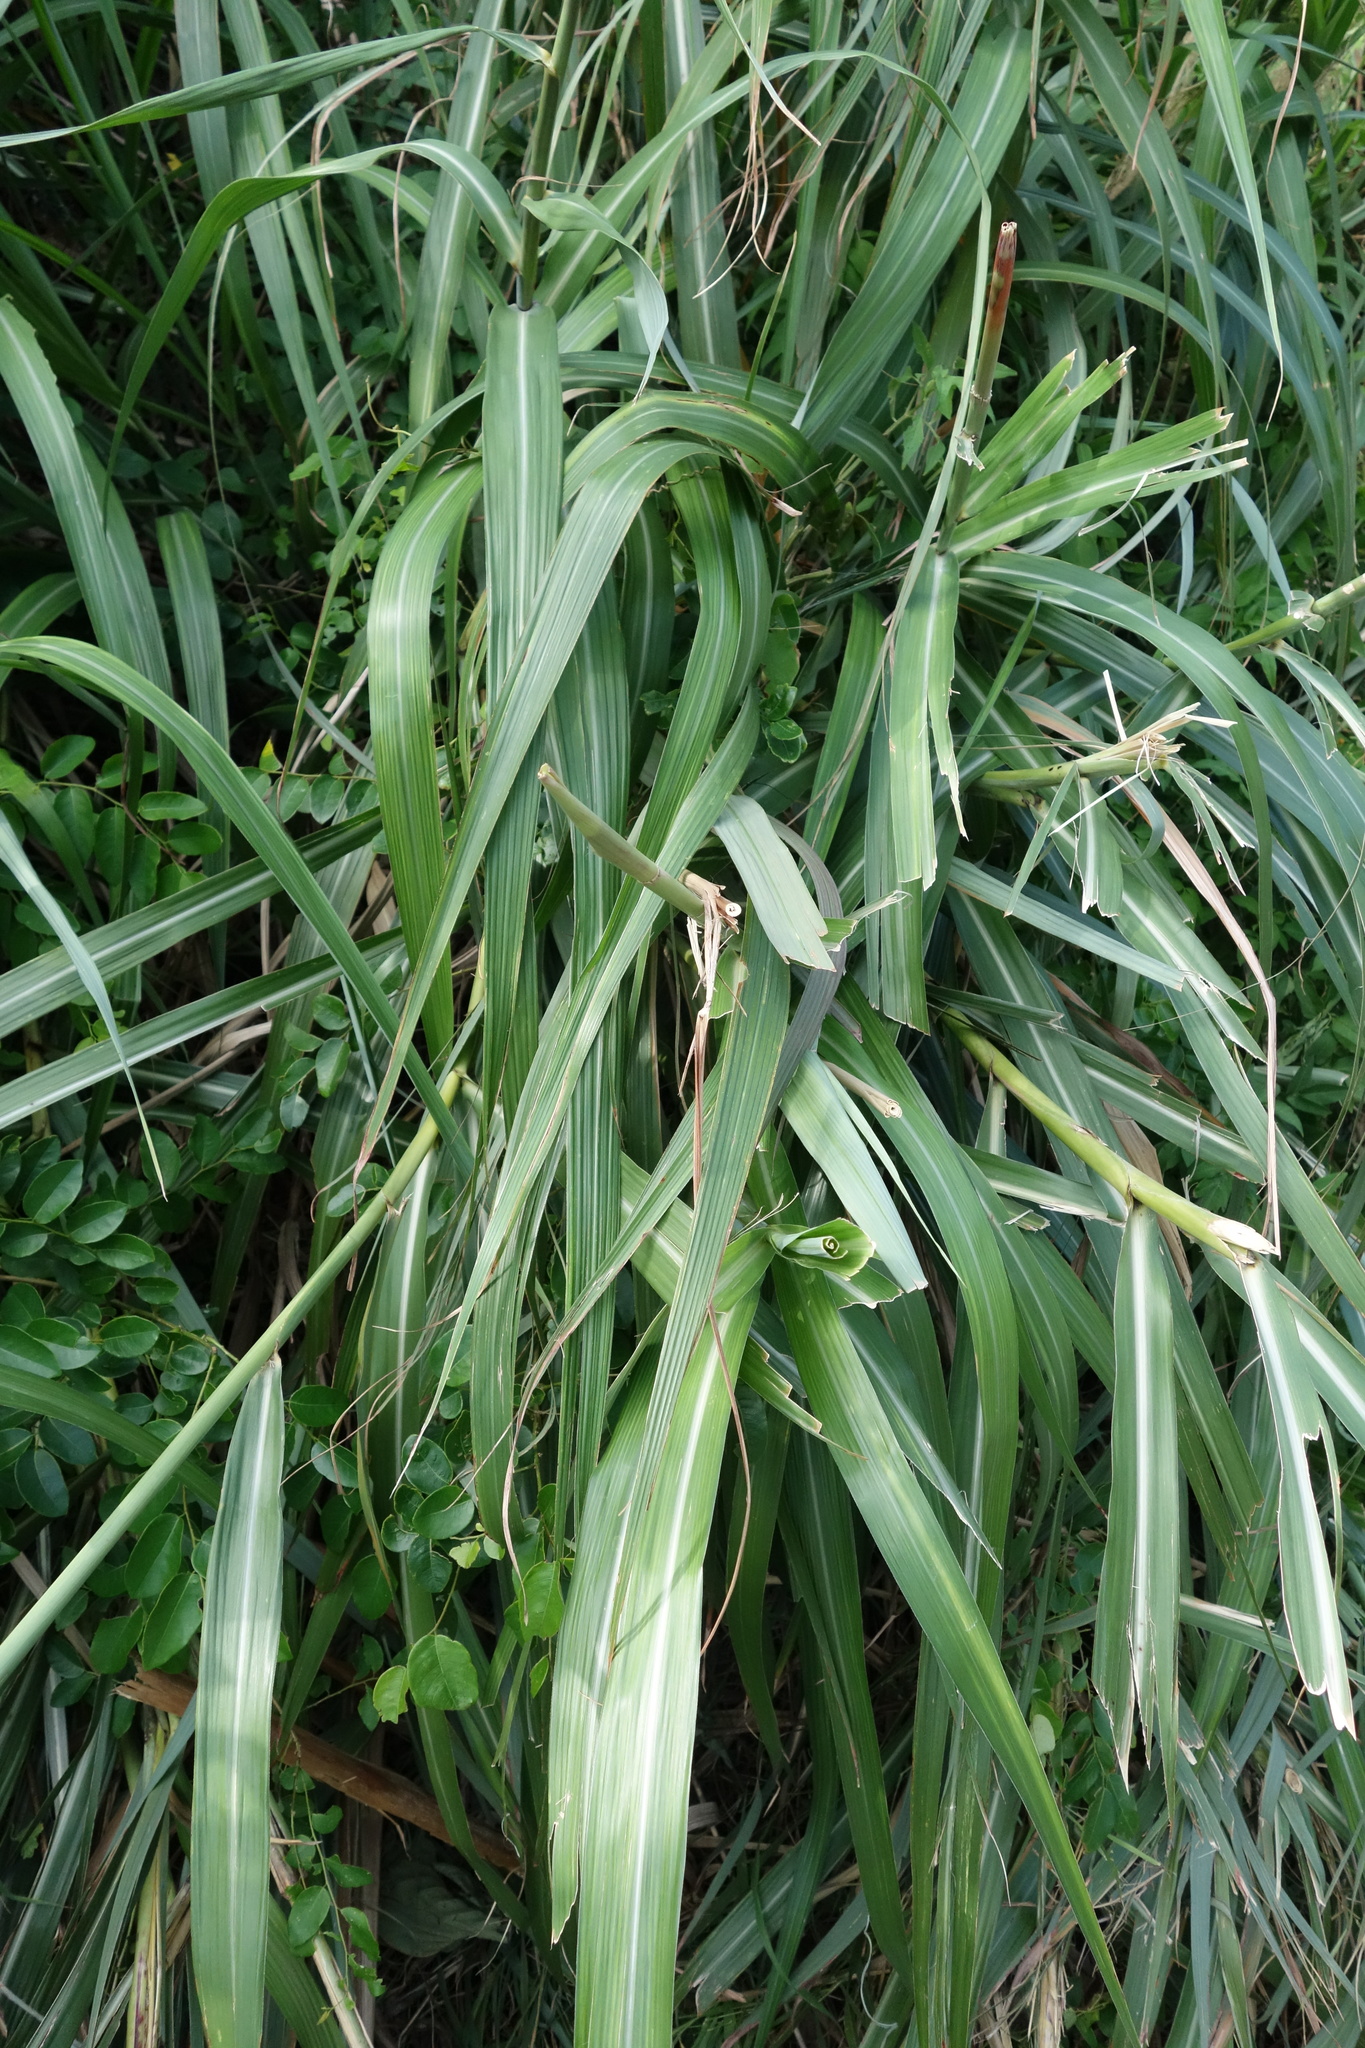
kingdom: Plantae
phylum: Tracheophyta
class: Liliopsida
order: Poales
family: Poaceae
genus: Miscanthus
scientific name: Miscanthus sinensis
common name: Chinese silvergrass
